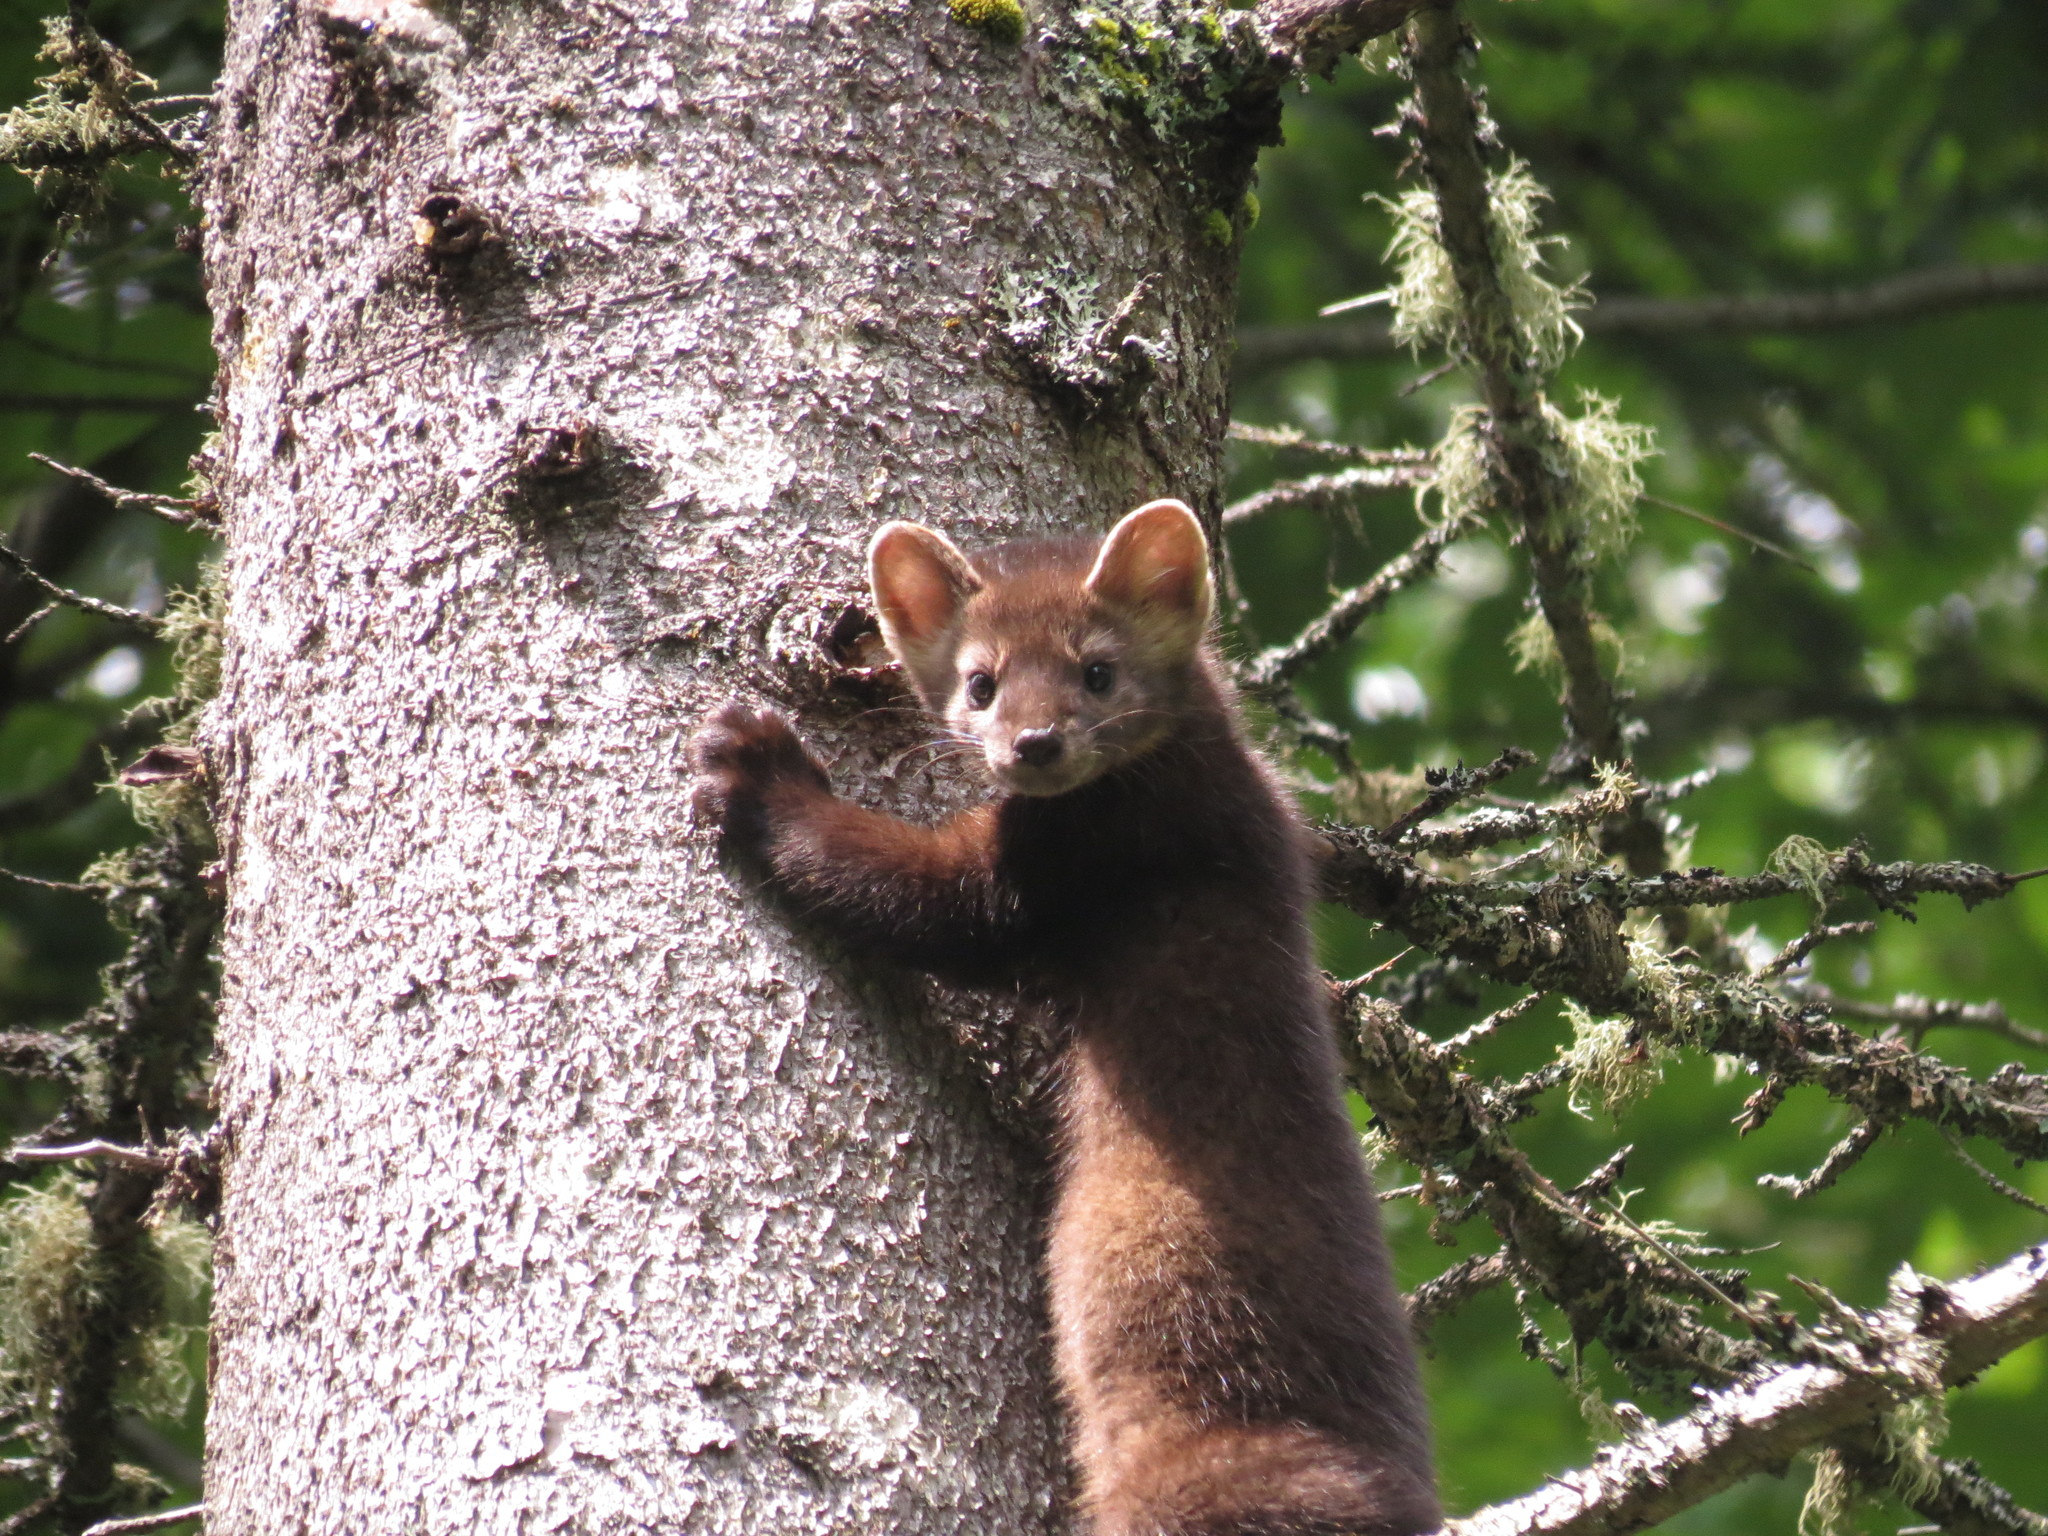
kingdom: Animalia
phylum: Chordata
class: Mammalia
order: Carnivora
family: Mustelidae
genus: Martes
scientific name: Martes americana
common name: American marten
